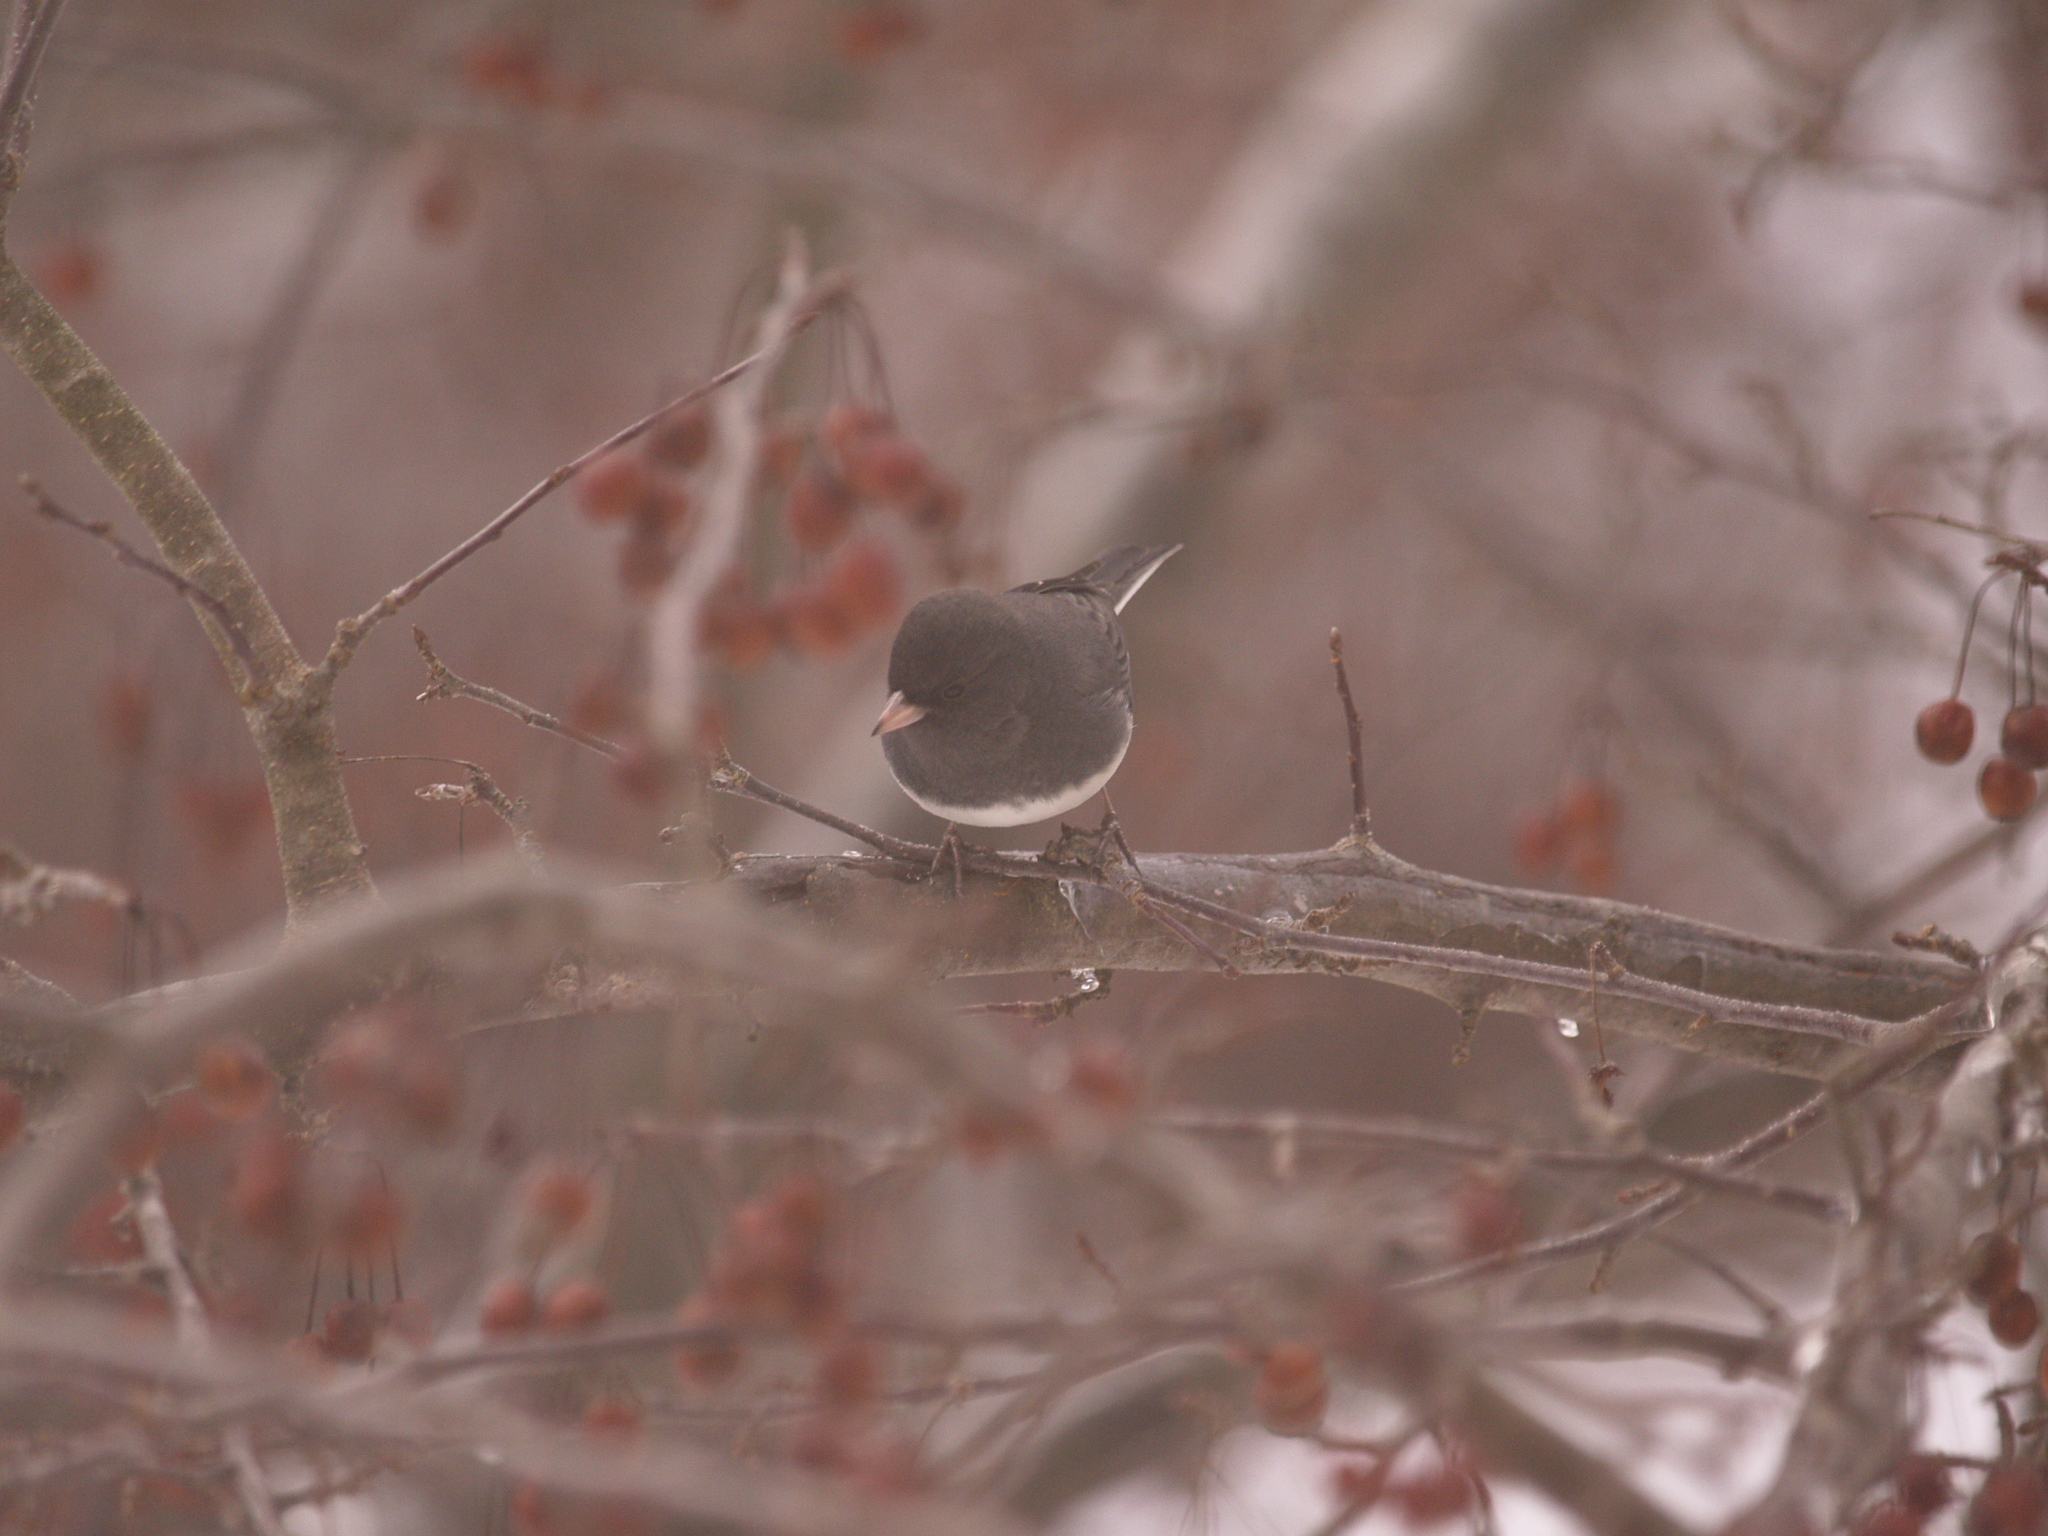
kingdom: Animalia
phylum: Chordata
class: Aves
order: Passeriformes
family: Passerellidae
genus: Junco
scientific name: Junco hyemalis
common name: Dark-eyed junco
